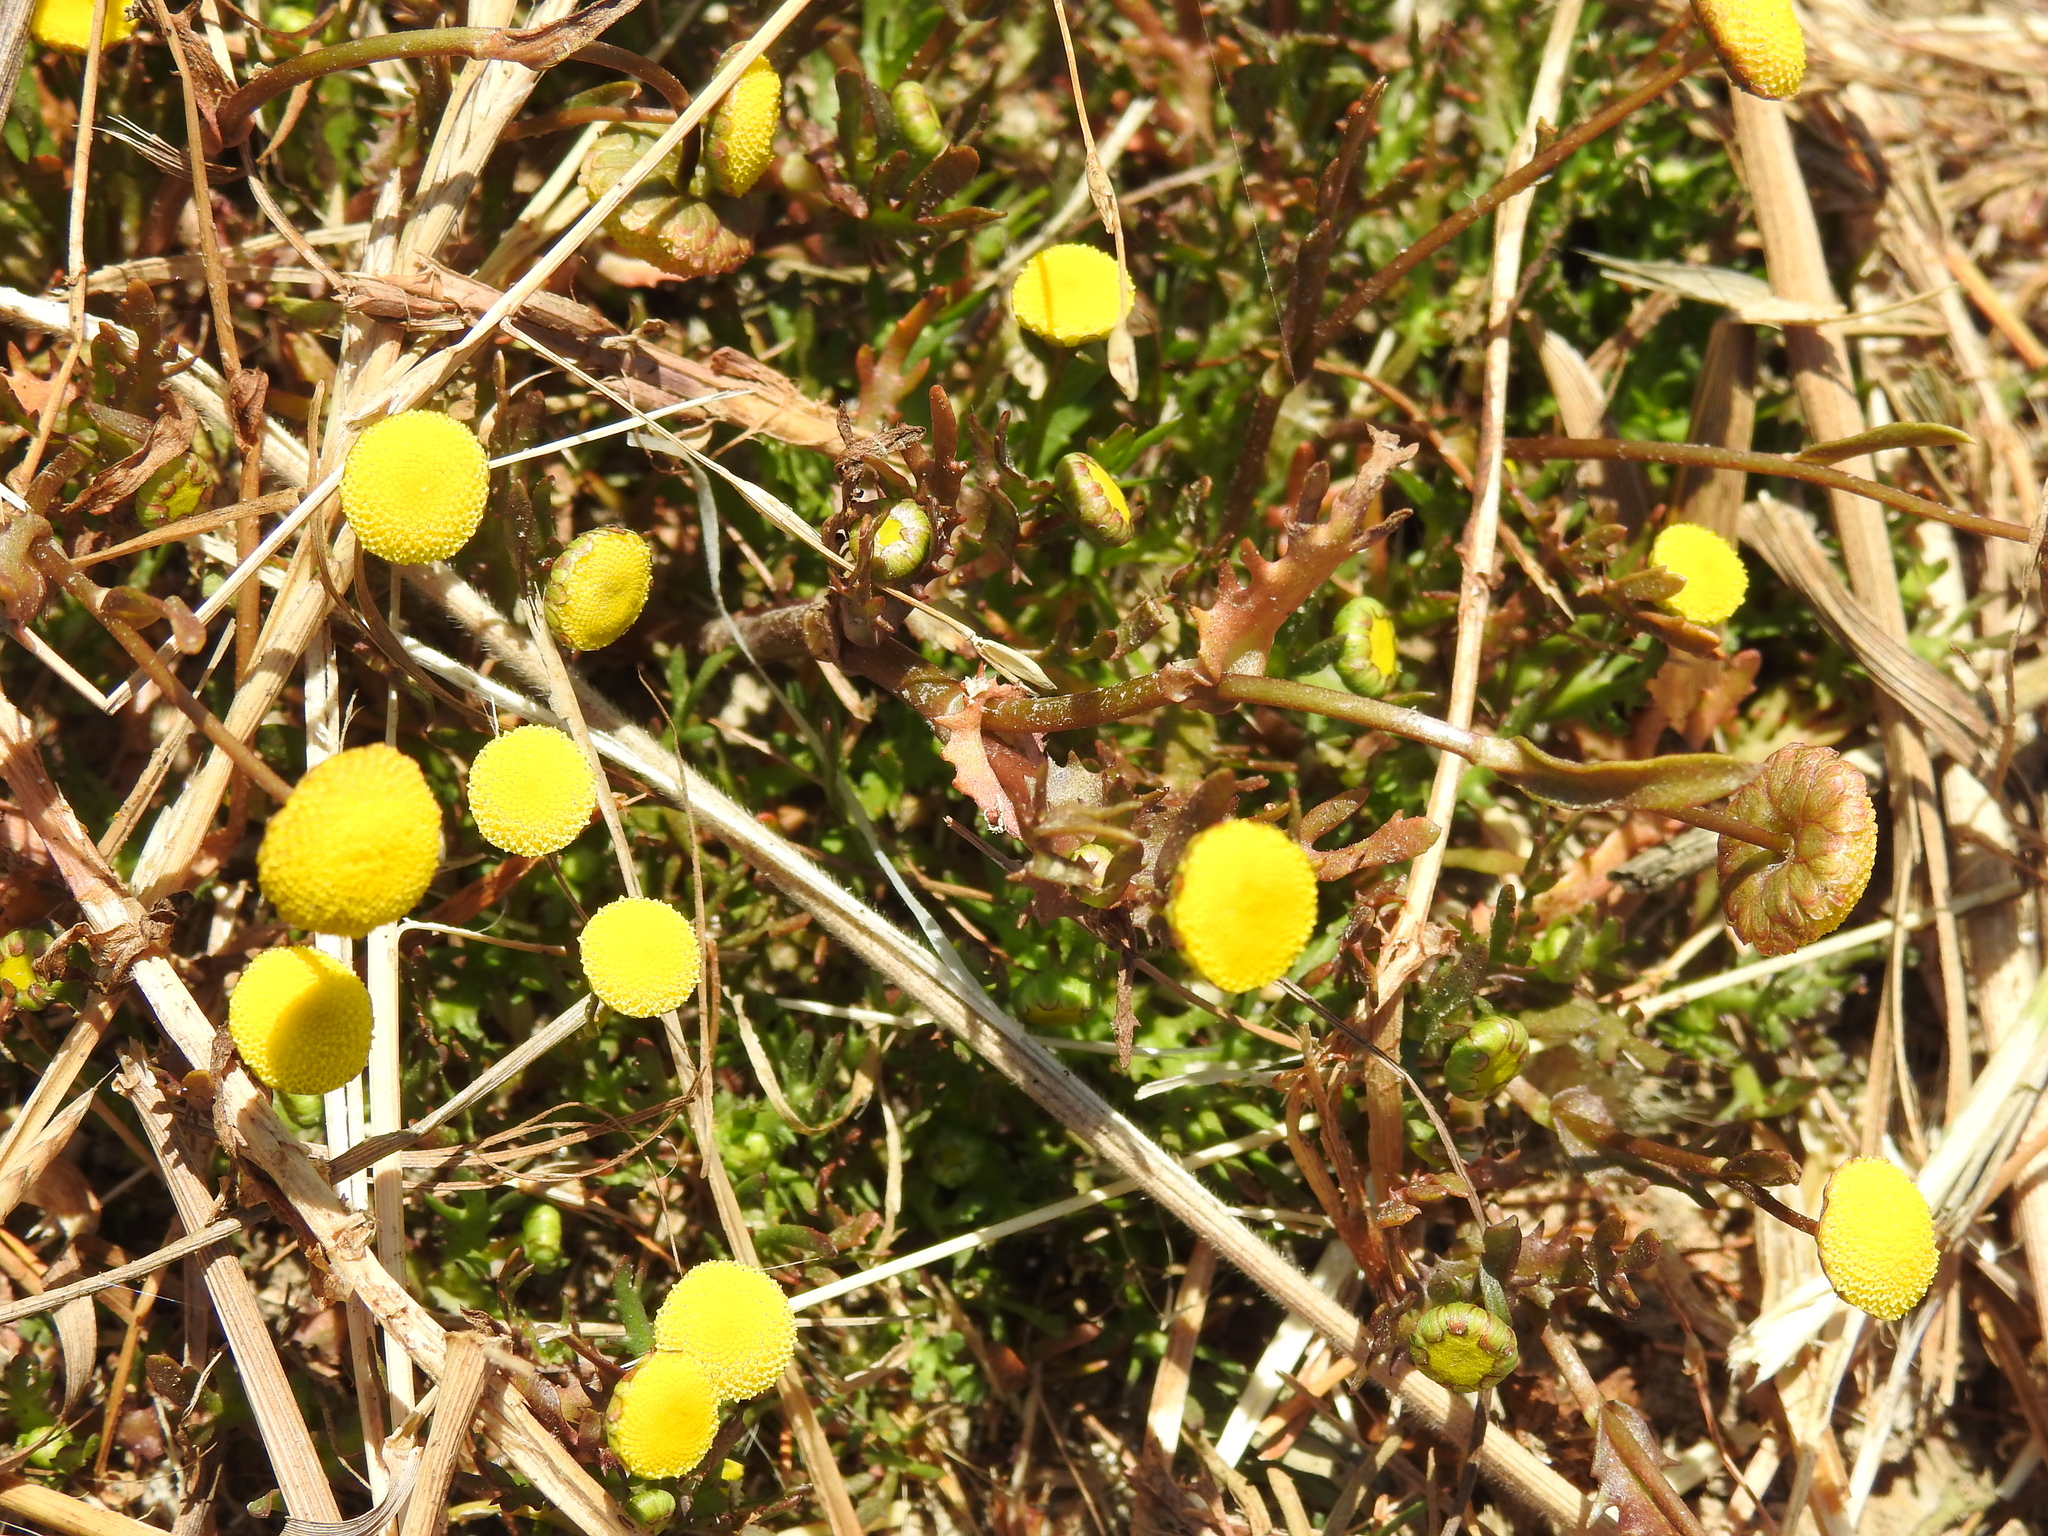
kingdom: Plantae
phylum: Tracheophyta
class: Magnoliopsida
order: Asterales
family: Asteraceae
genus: Cotula
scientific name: Cotula coronopifolia
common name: Buttonweed
